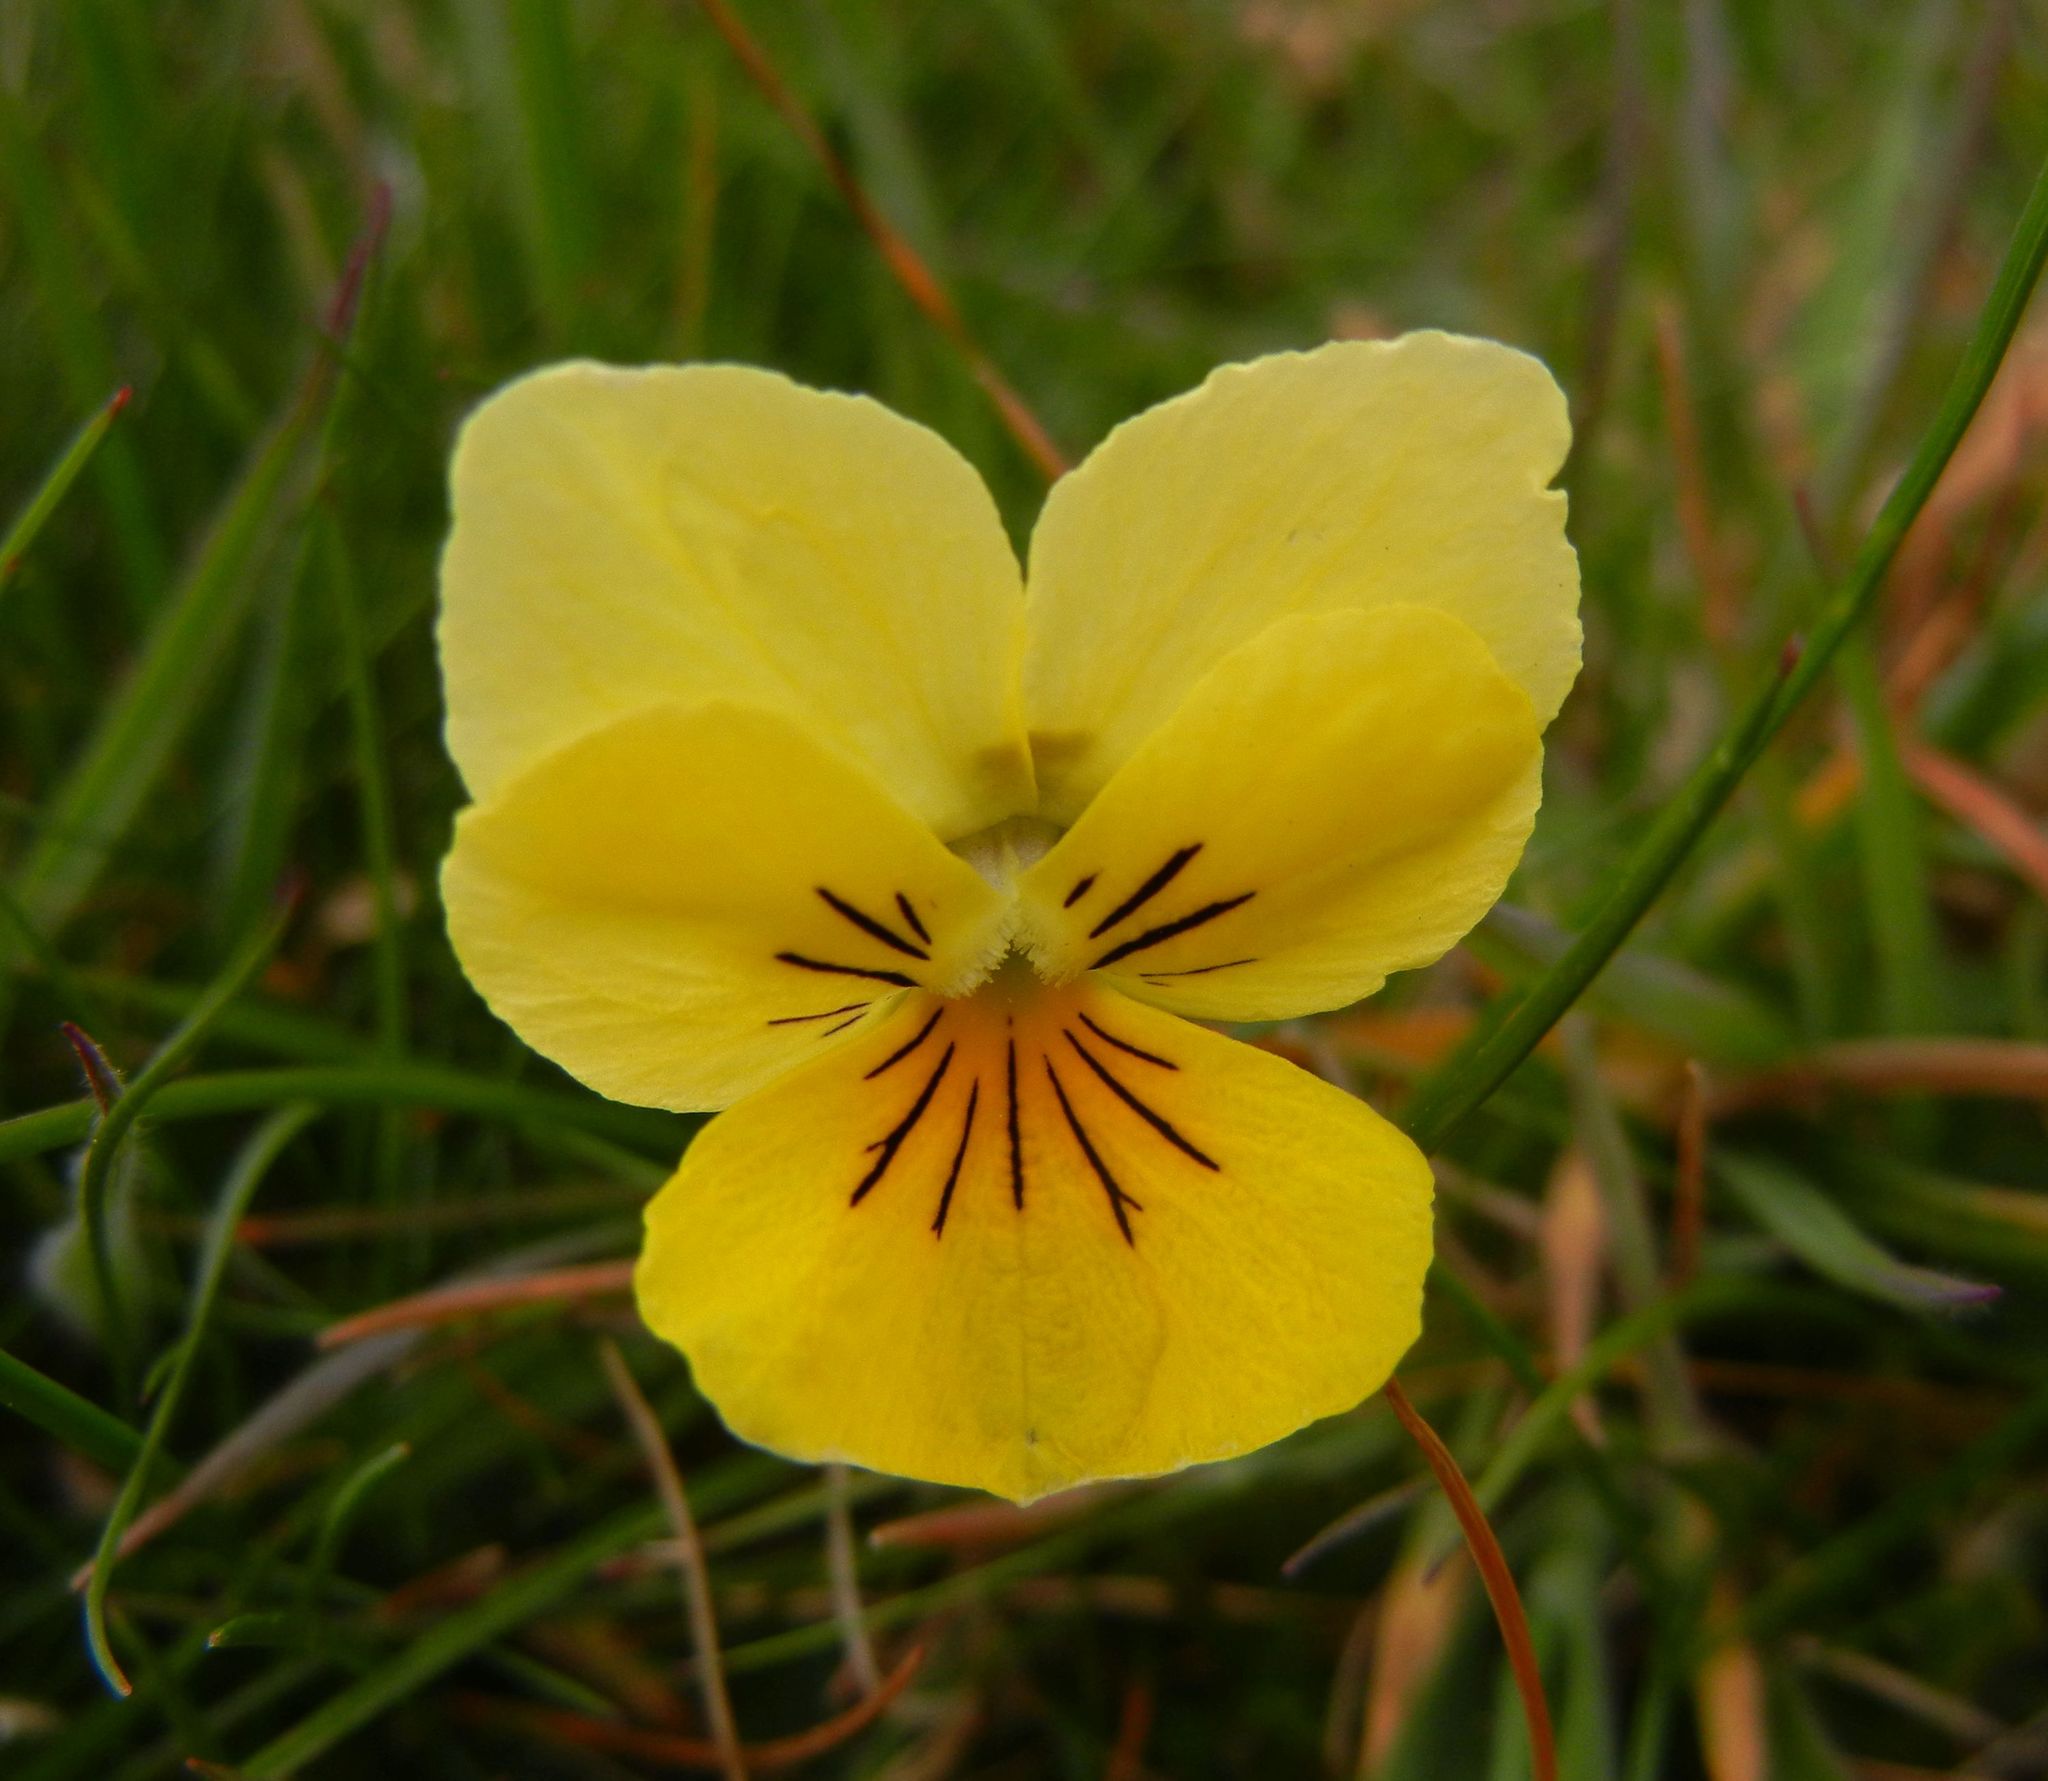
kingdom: Plantae
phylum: Tracheophyta
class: Magnoliopsida
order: Malpighiales
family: Violaceae
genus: Viola
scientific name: Viola lutea
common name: Mountain pansy
